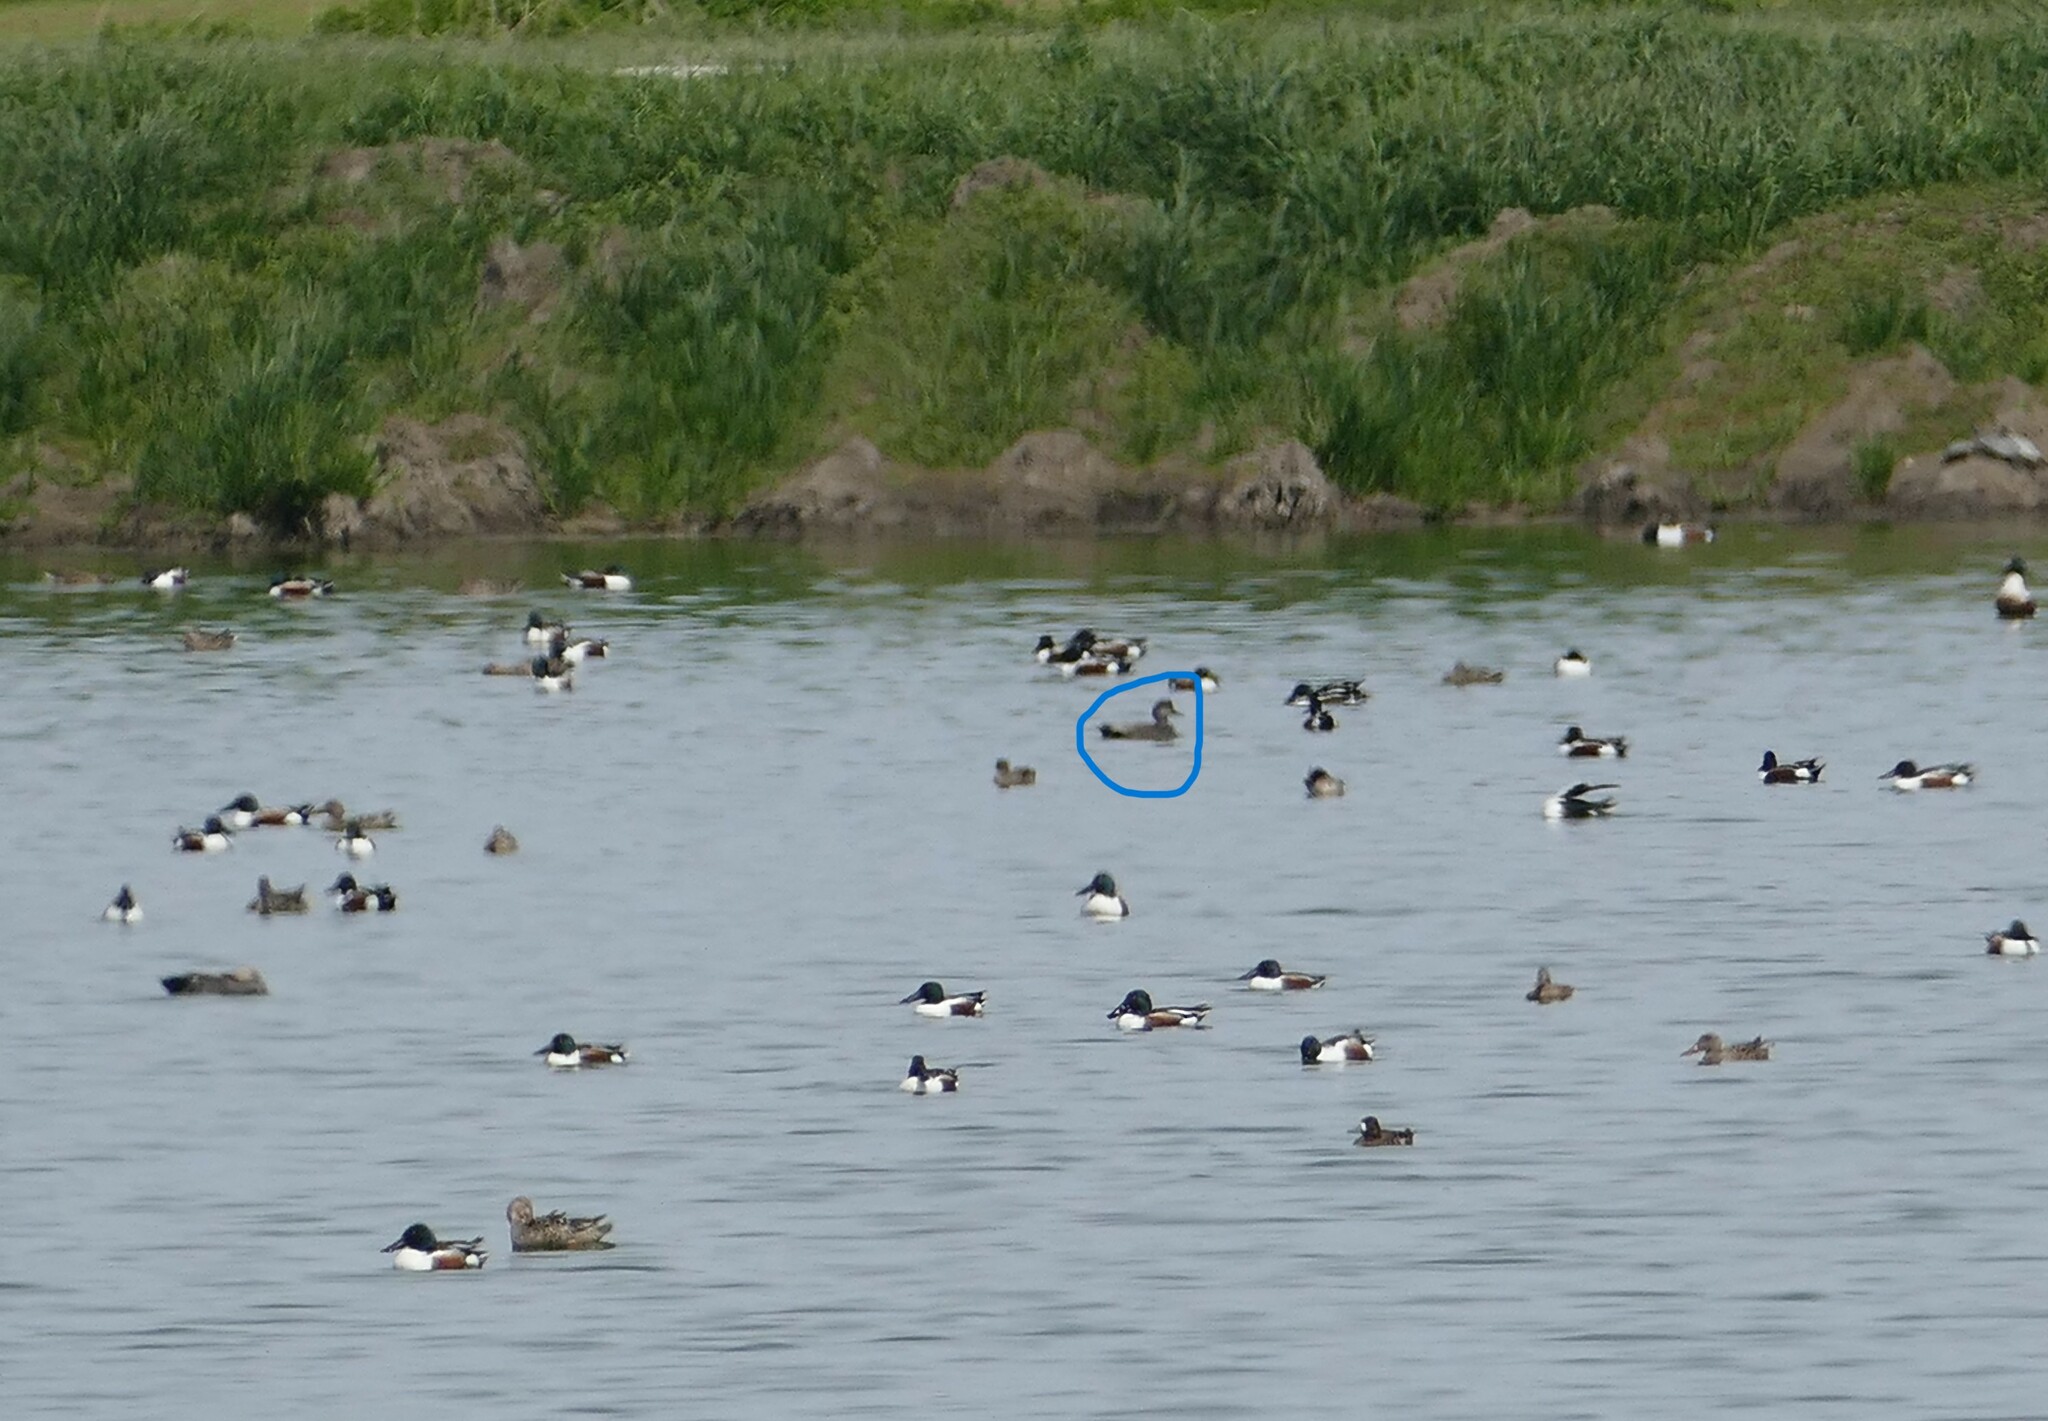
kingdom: Animalia
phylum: Chordata
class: Aves
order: Anseriformes
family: Anatidae
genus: Mareca
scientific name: Mareca strepera
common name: Gadwall
